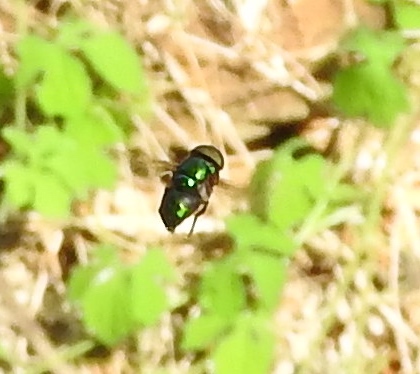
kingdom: Animalia
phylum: Arthropoda
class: Insecta
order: Diptera
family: Syrphidae
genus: Ornidia
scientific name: Ornidia
